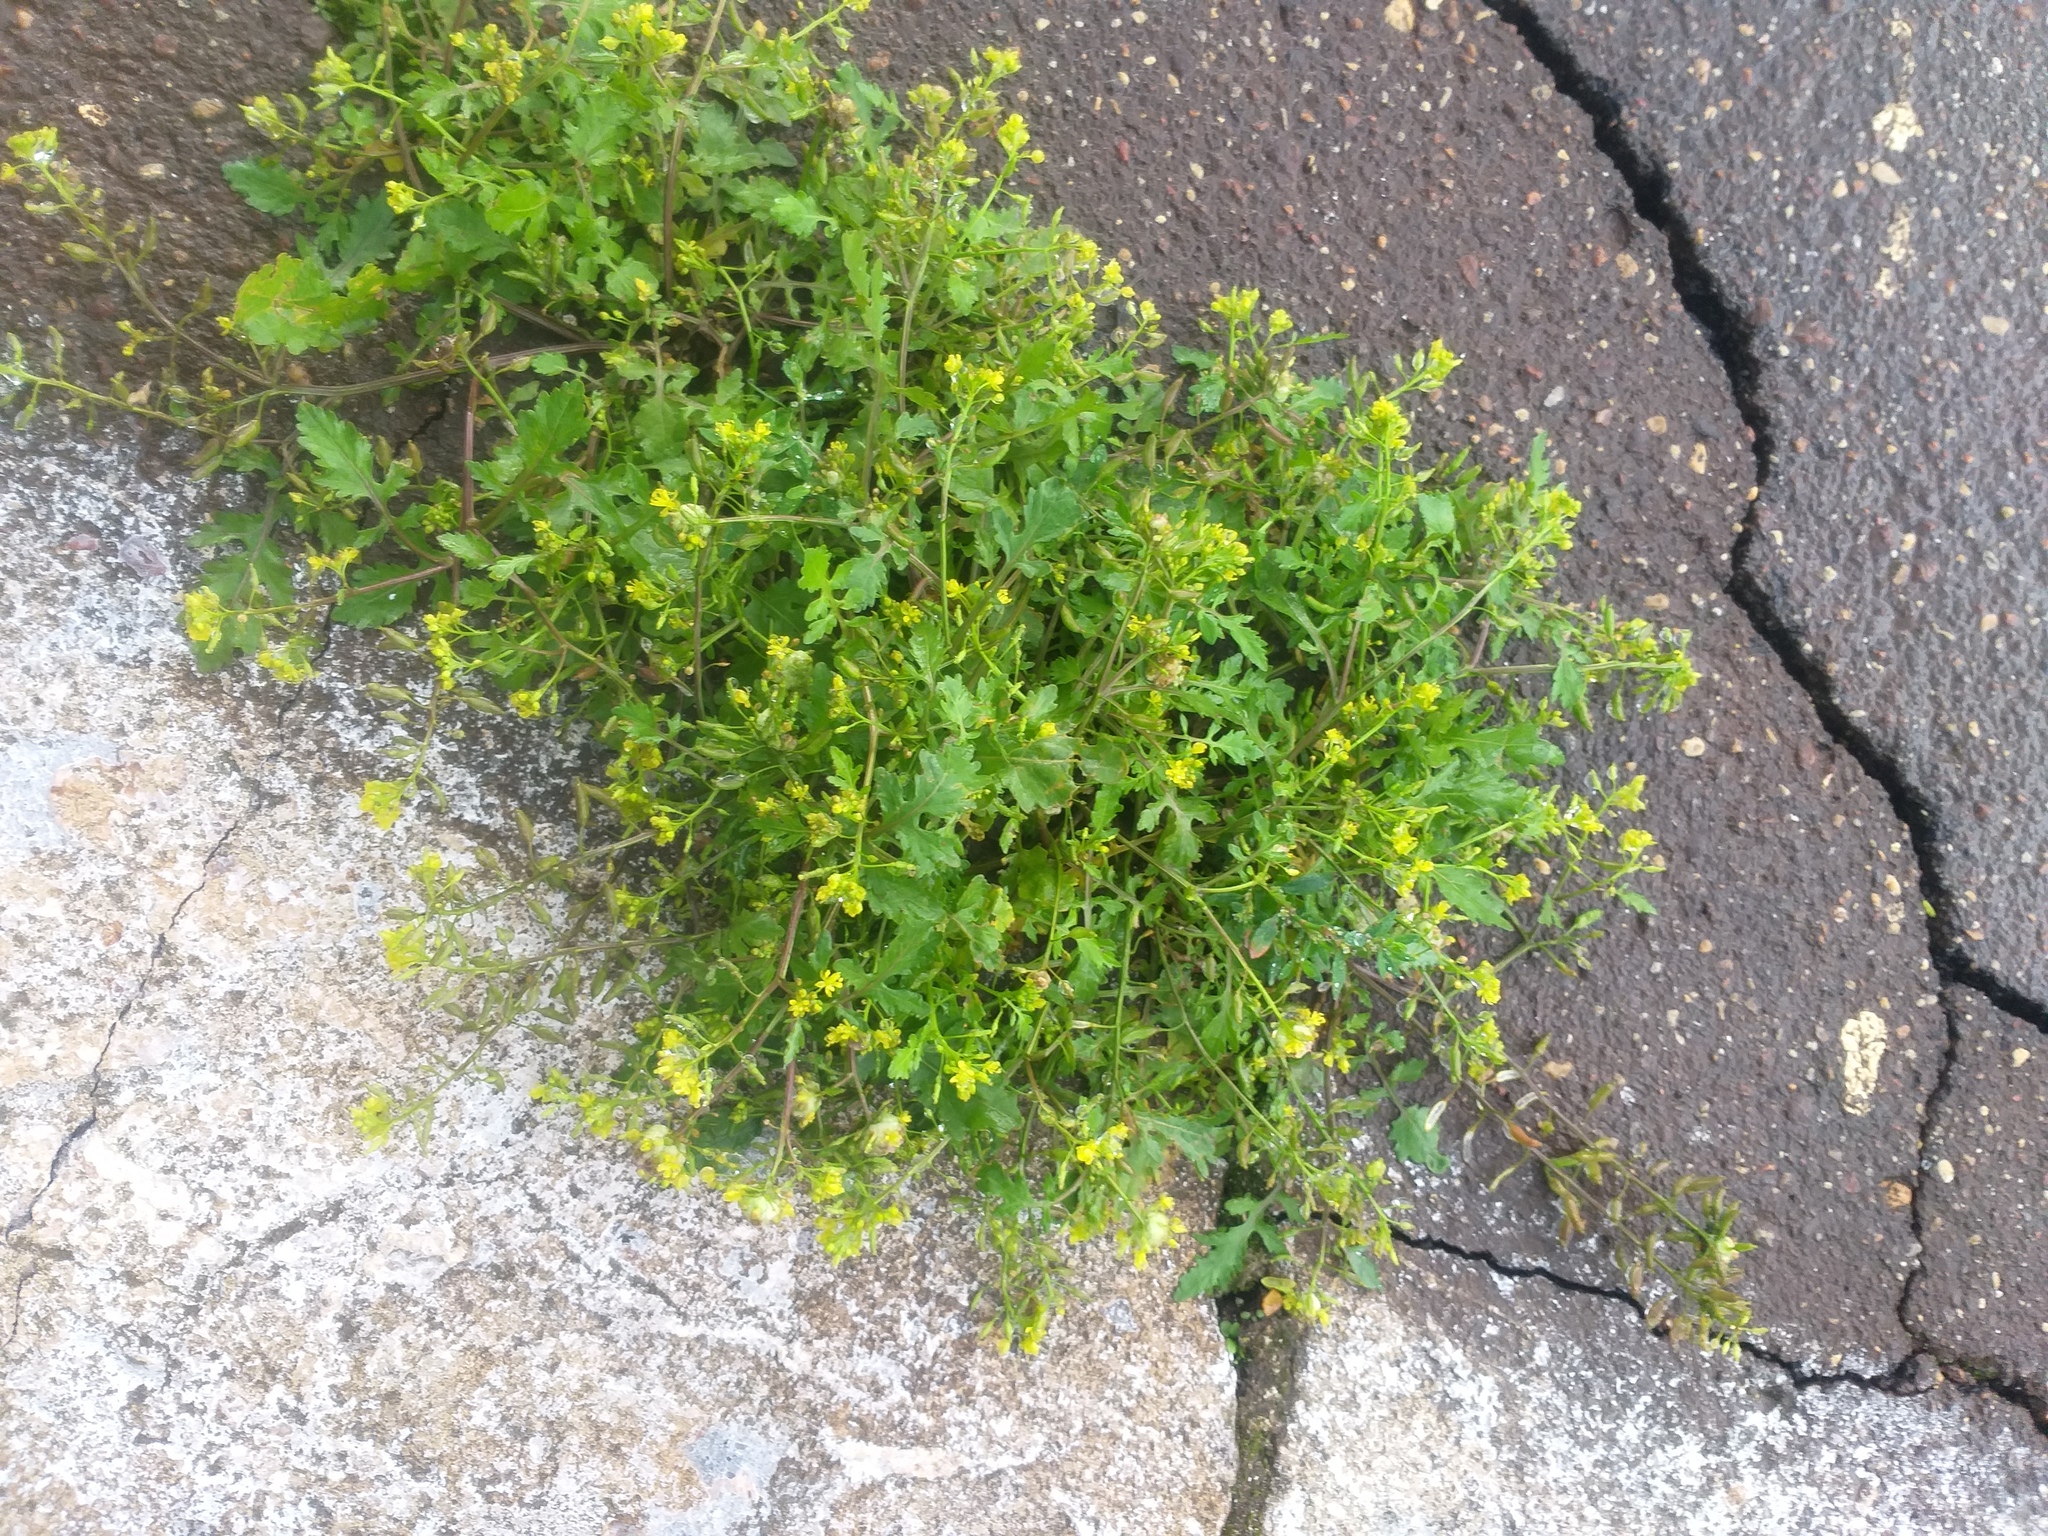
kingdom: Plantae
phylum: Tracheophyta
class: Magnoliopsida
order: Brassicales
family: Brassicaceae
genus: Rorippa
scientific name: Rorippa palustris
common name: Marsh yellow-cress
